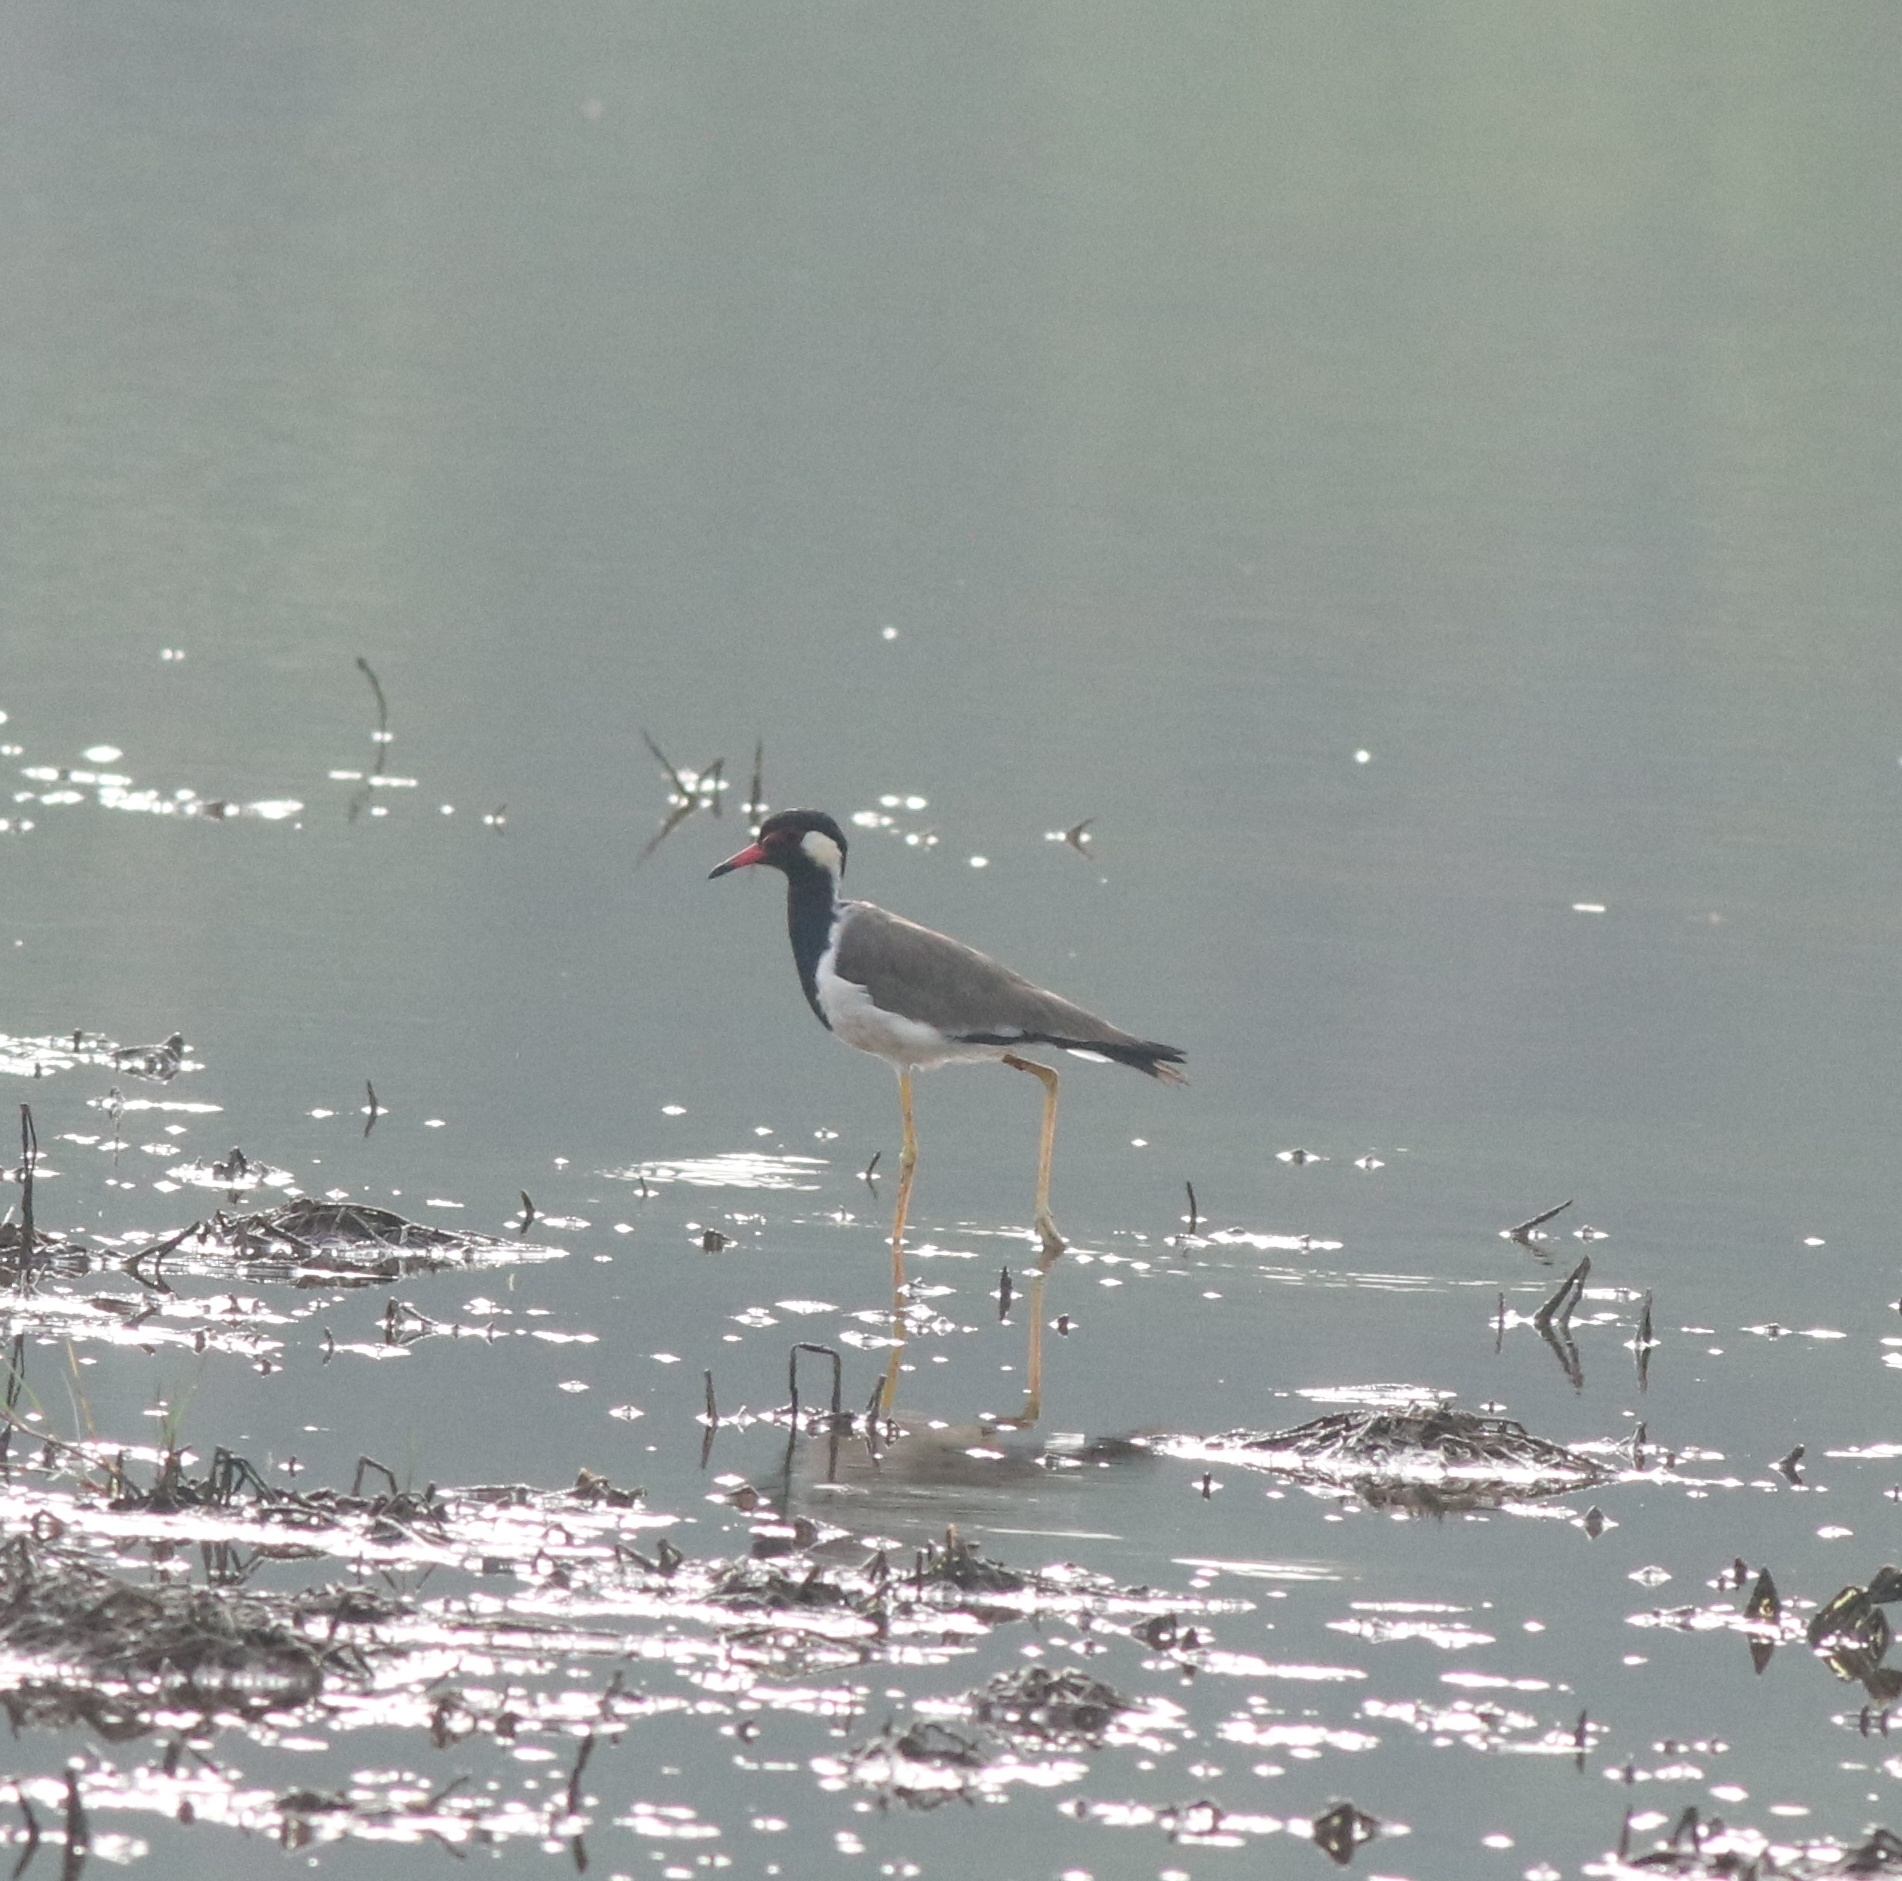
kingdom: Animalia
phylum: Chordata
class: Aves
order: Charadriiformes
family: Charadriidae
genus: Vanellus
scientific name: Vanellus indicus
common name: Red-wattled lapwing
